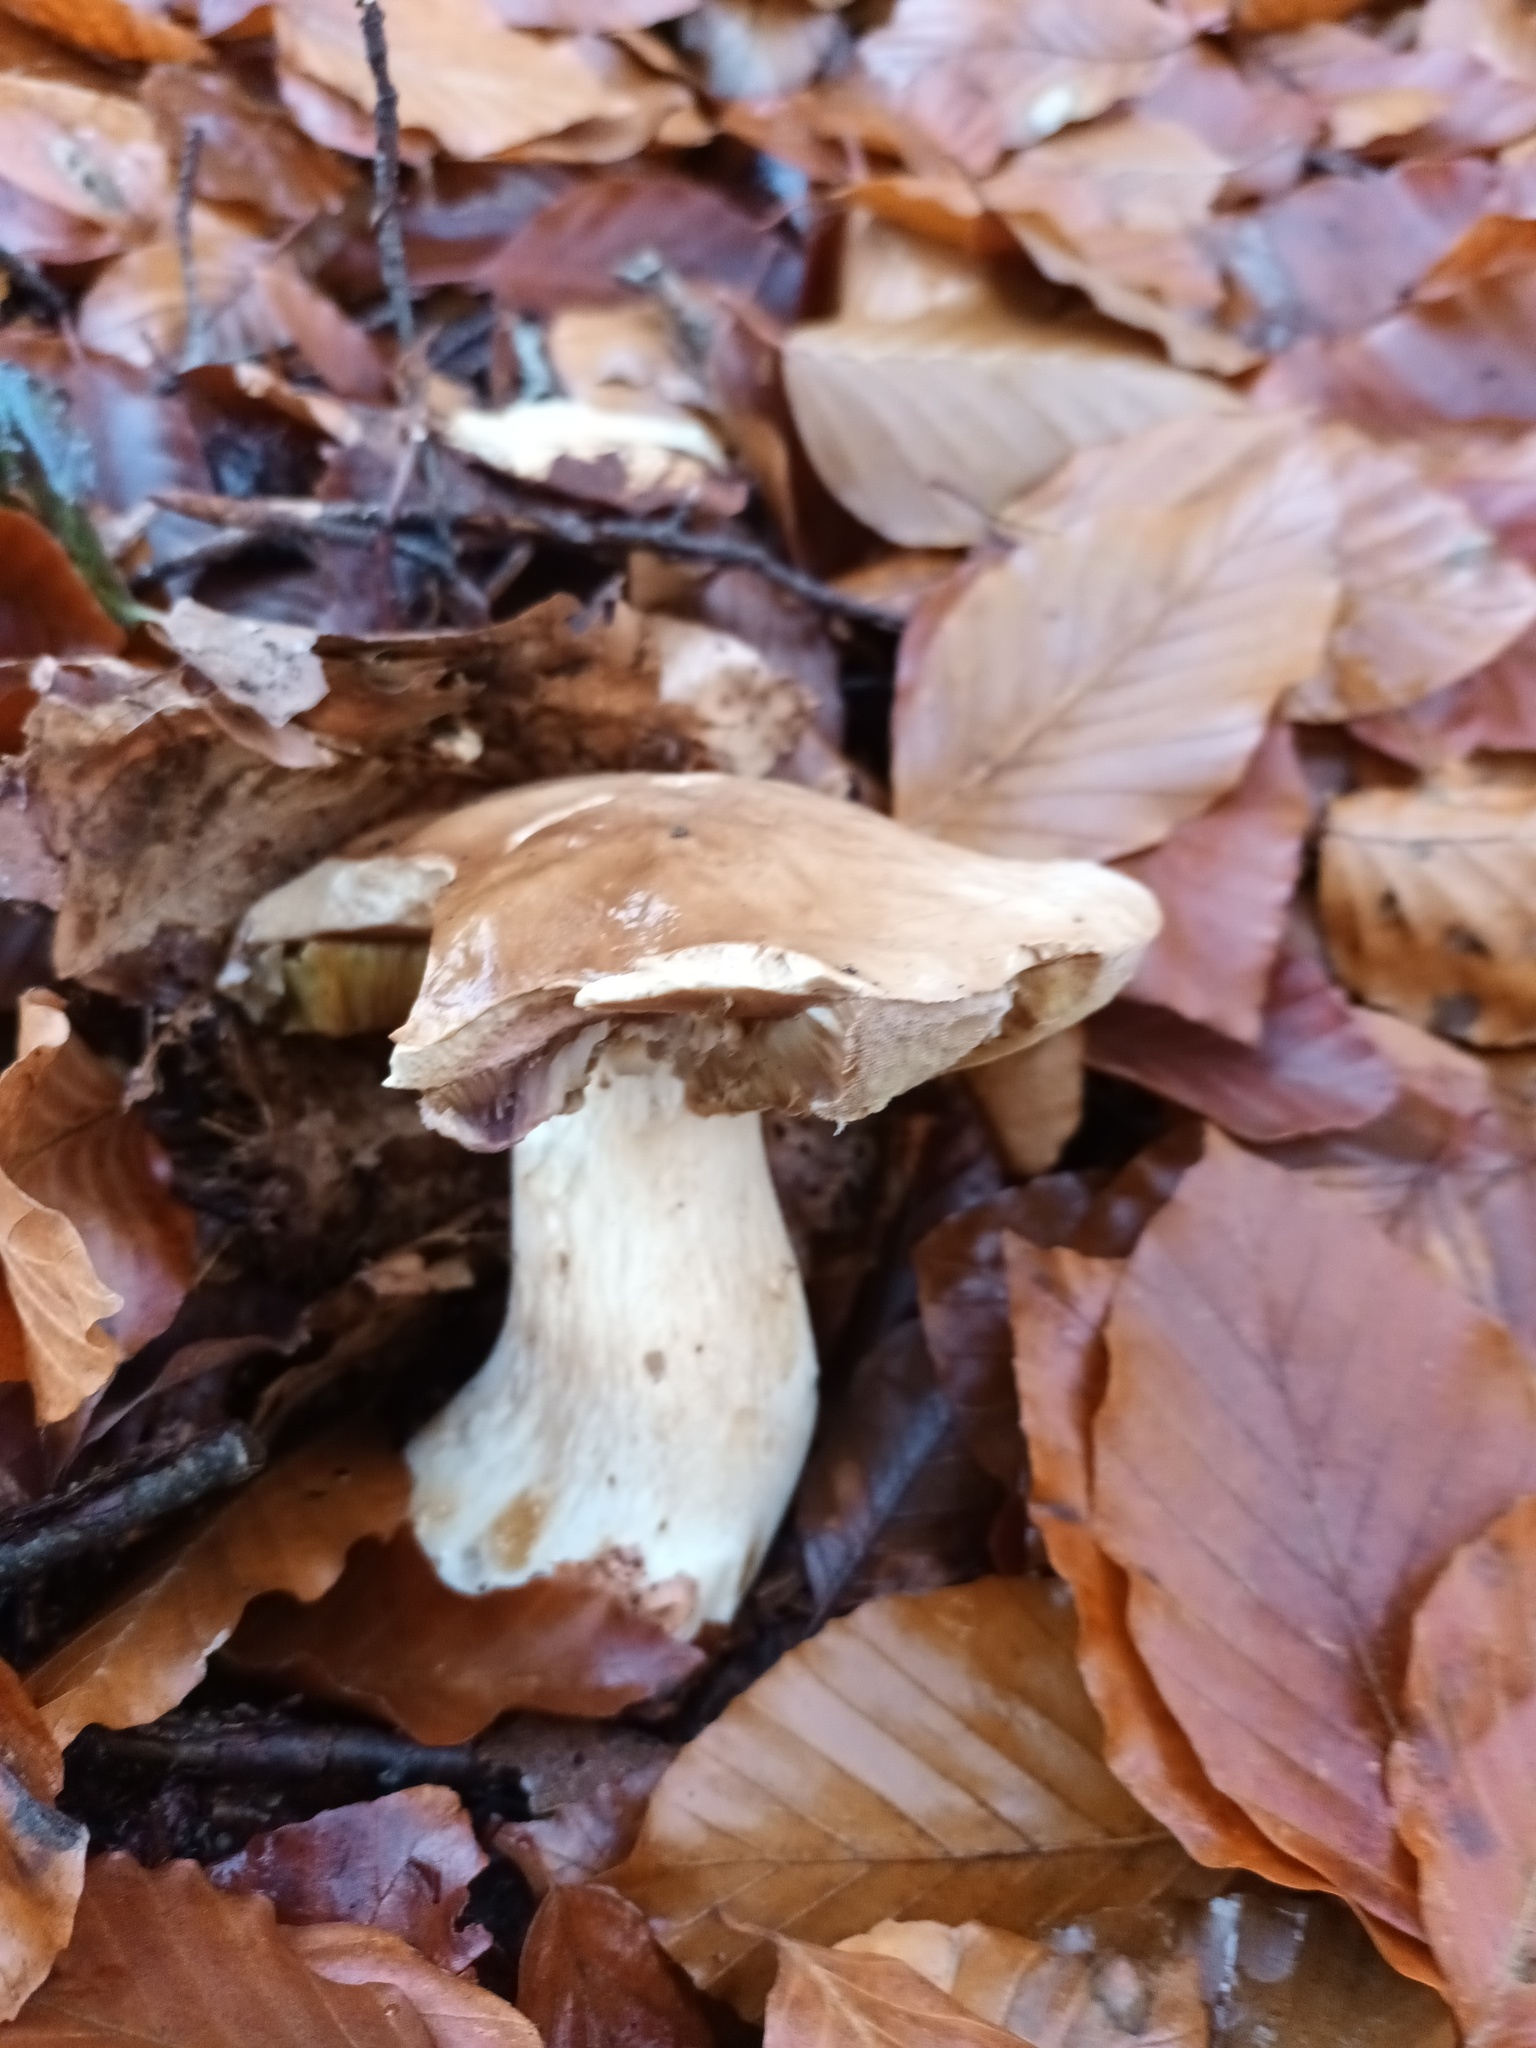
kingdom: Fungi
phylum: Basidiomycota
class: Agaricomycetes
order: Boletales
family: Boletaceae
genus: Boletus
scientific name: Boletus edulis
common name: Cep
